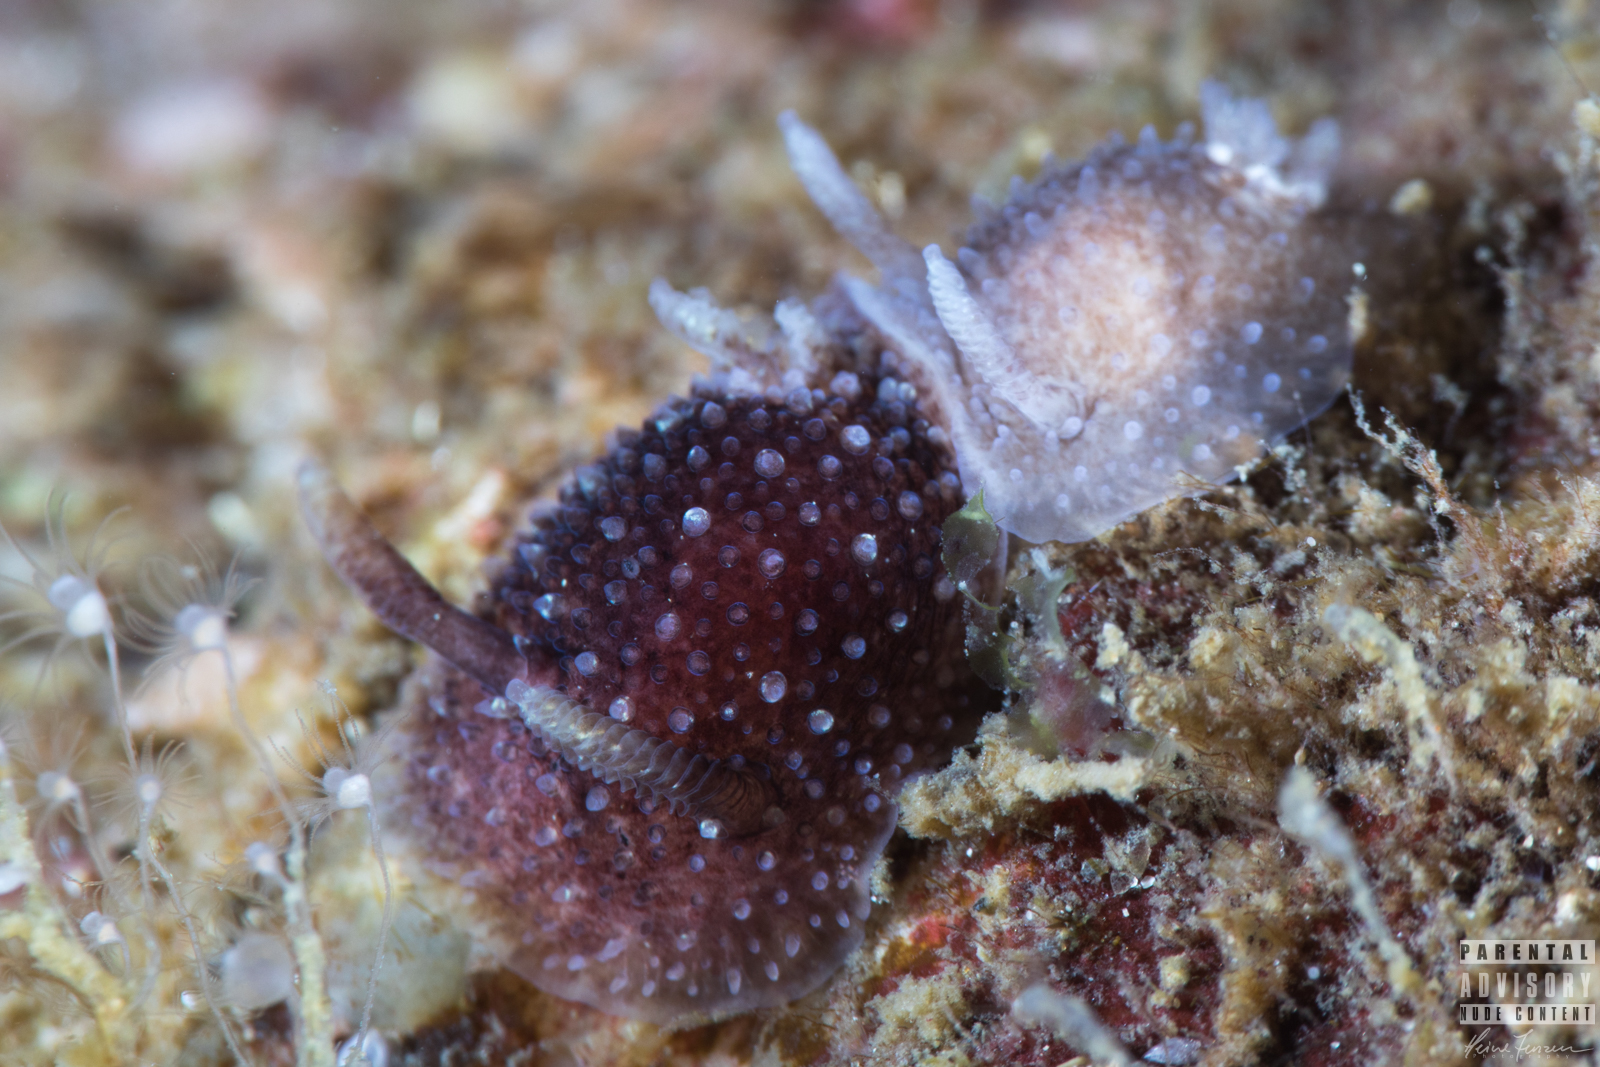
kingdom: Animalia
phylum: Mollusca
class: Gastropoda
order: Nudibranchia
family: Onchidorididae
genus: Acanthodoris
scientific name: Acanthodoris pilosa
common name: Hairy spiny doris
